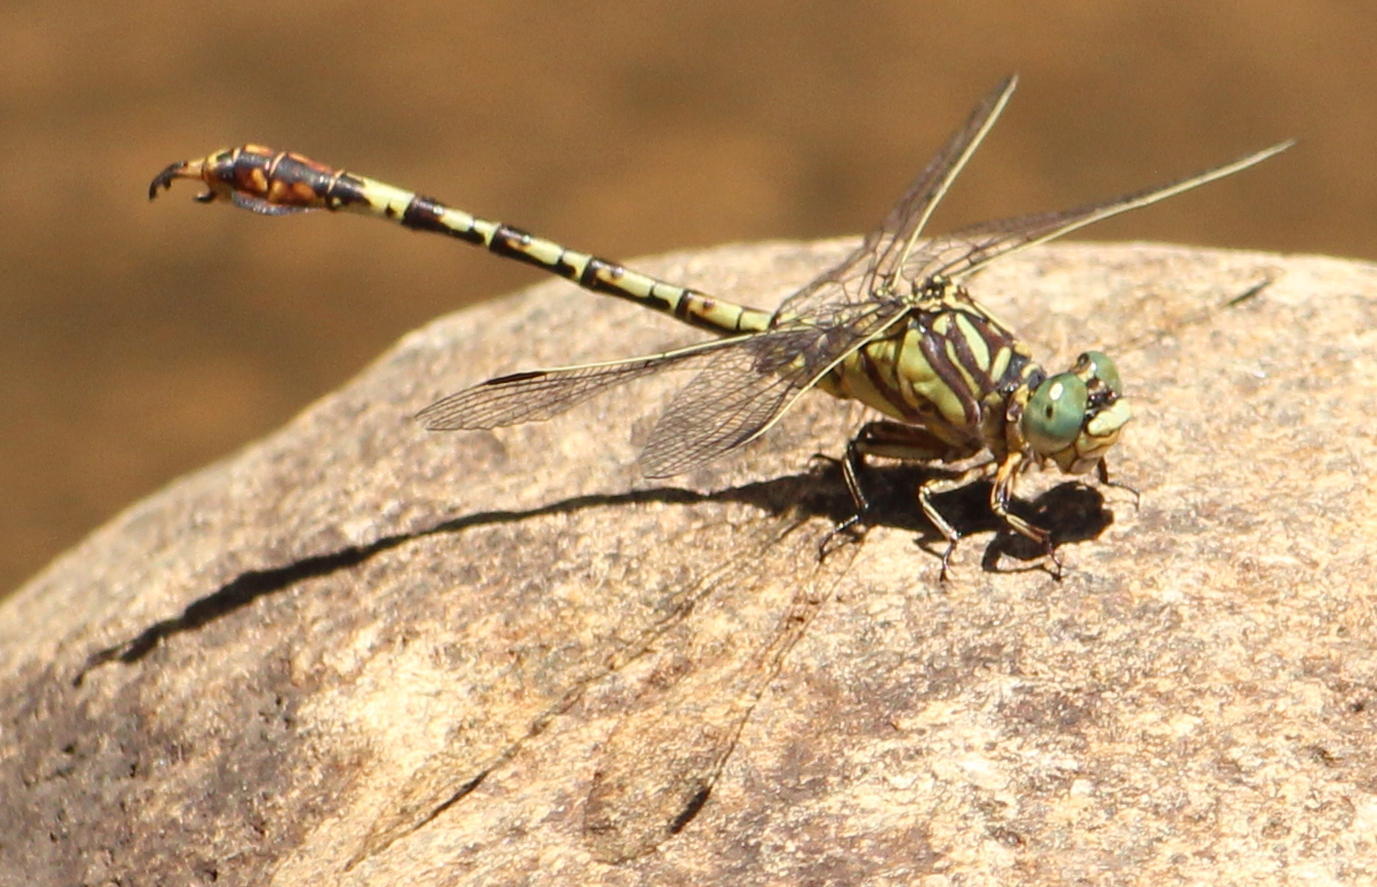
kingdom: Animalia
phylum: Arthropoda
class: Insecta
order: Odonata
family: Gomphidae
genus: Paragomphus
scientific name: Paragomphus cognatus
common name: Boulder hooktail
